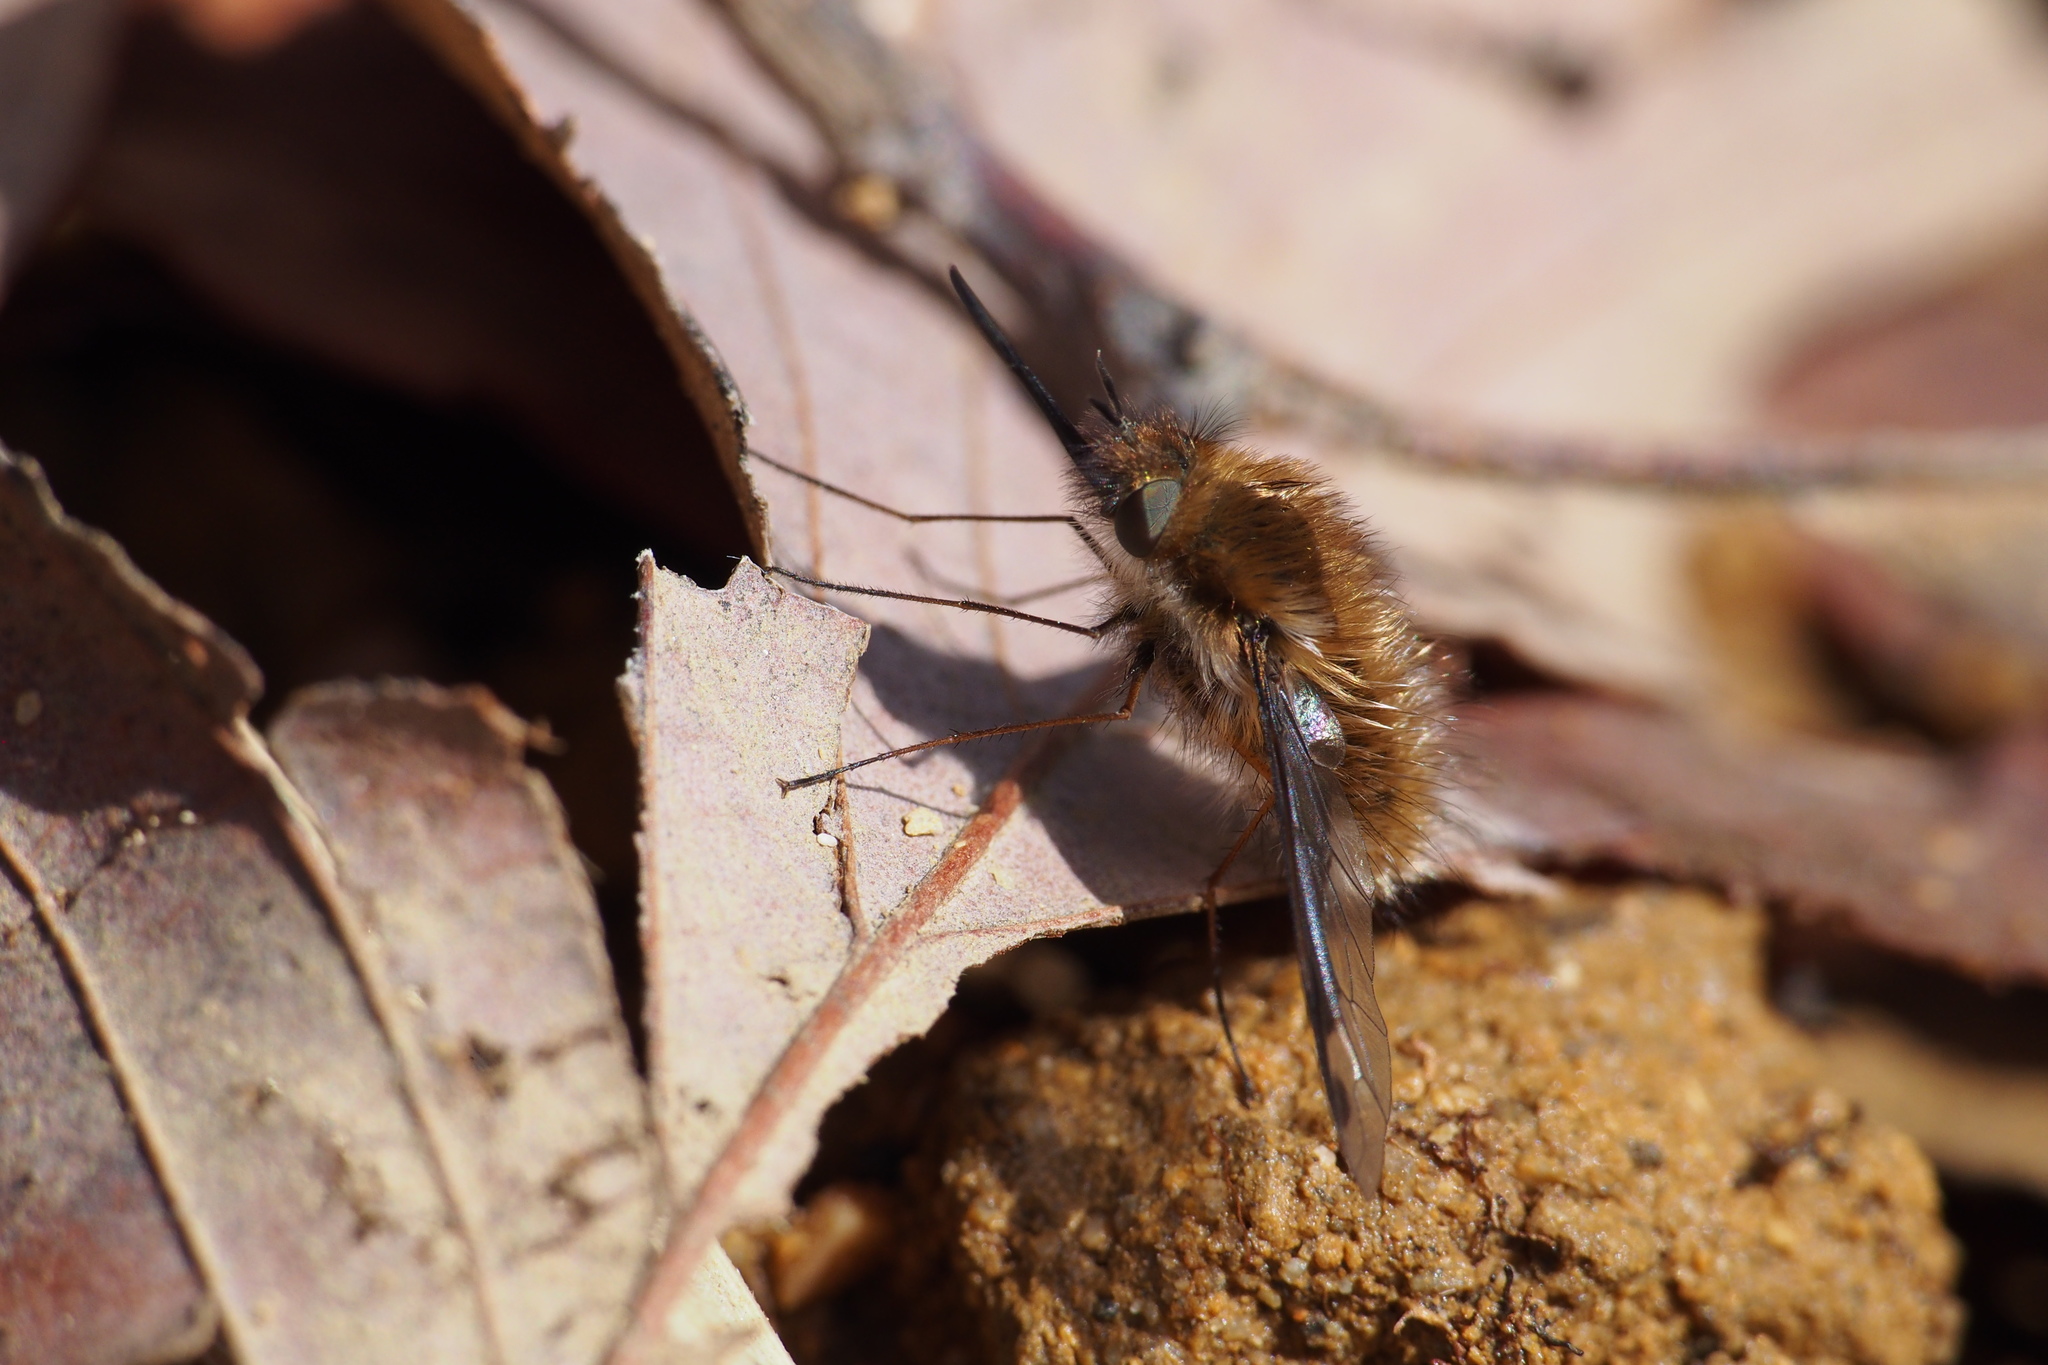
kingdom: Animalia
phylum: Arthropoda
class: Insecta
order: Diptera
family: Bombyliidae
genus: Bombylius
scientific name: Bombylius major
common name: Bee fly
